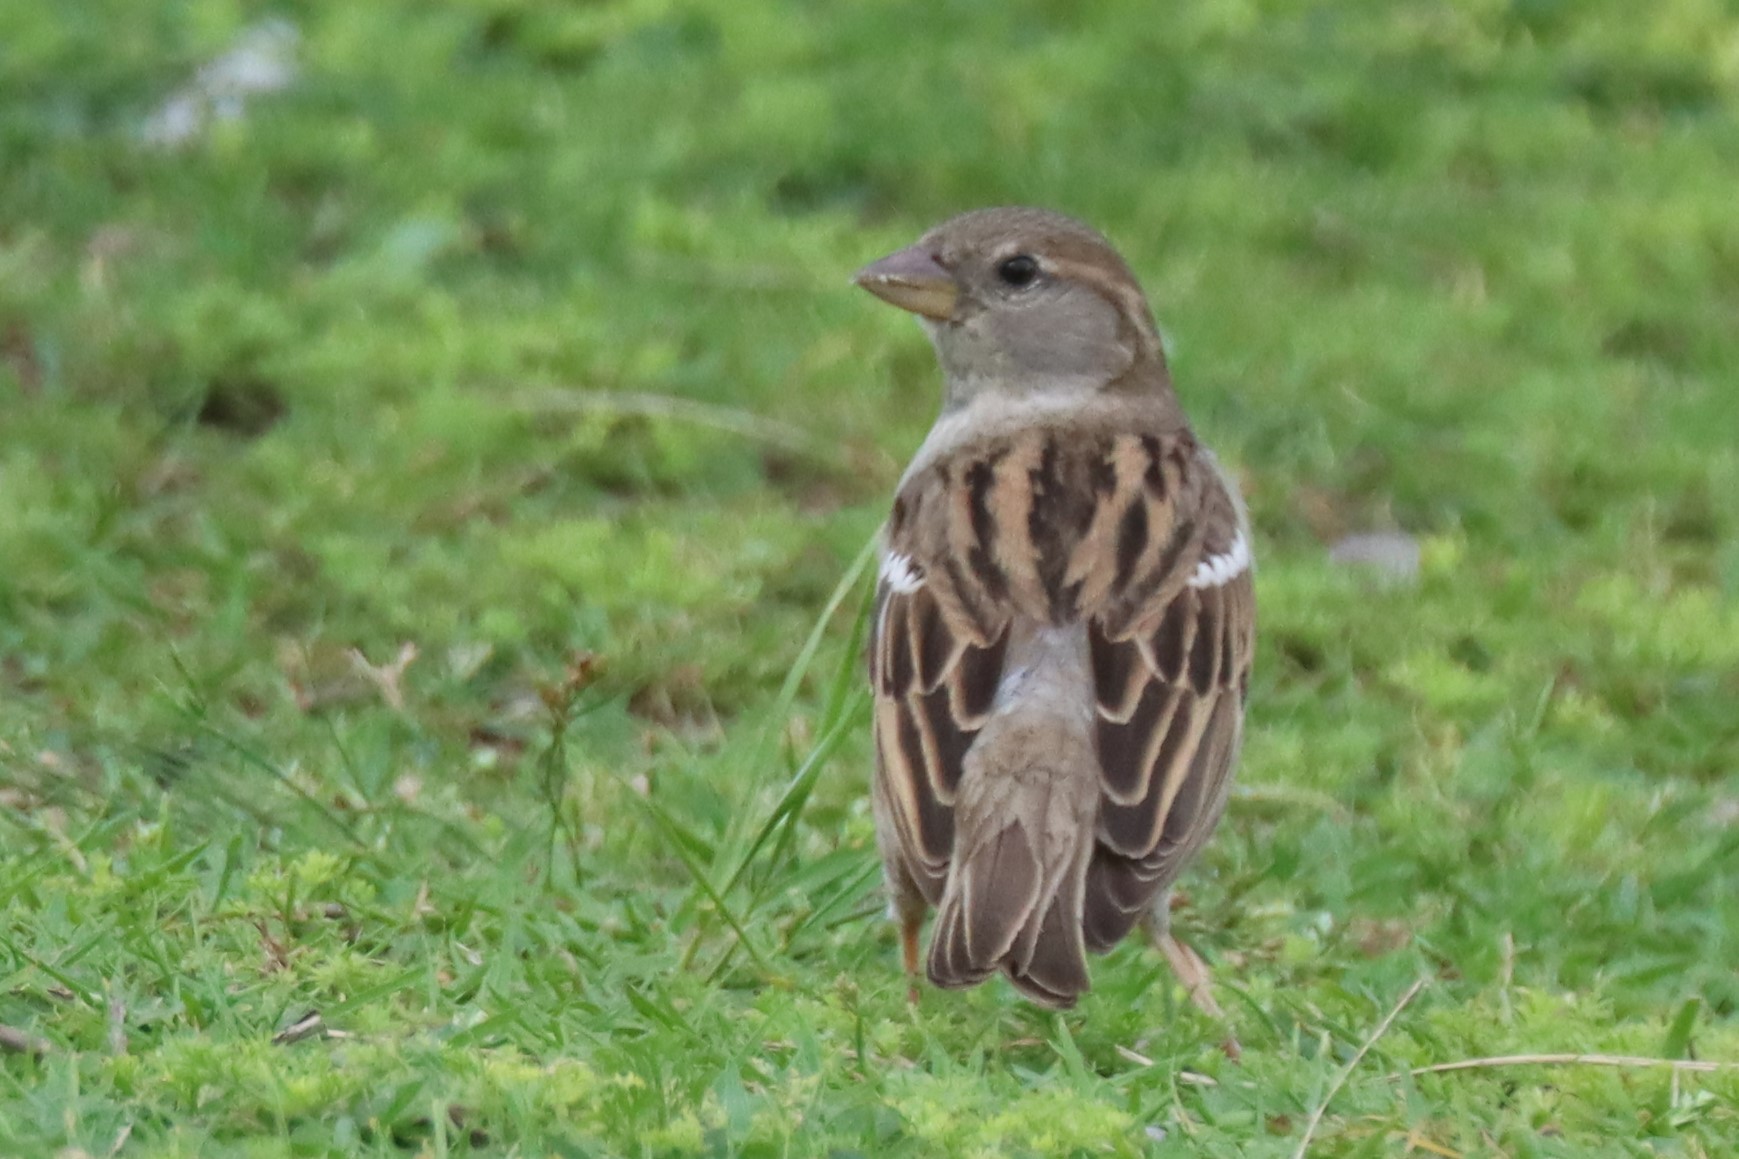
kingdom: Animalia
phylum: Chordata
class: Aves
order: Passeriformes
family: Passeridae
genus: Passer
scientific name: Passer domesticus
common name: House sparrow
